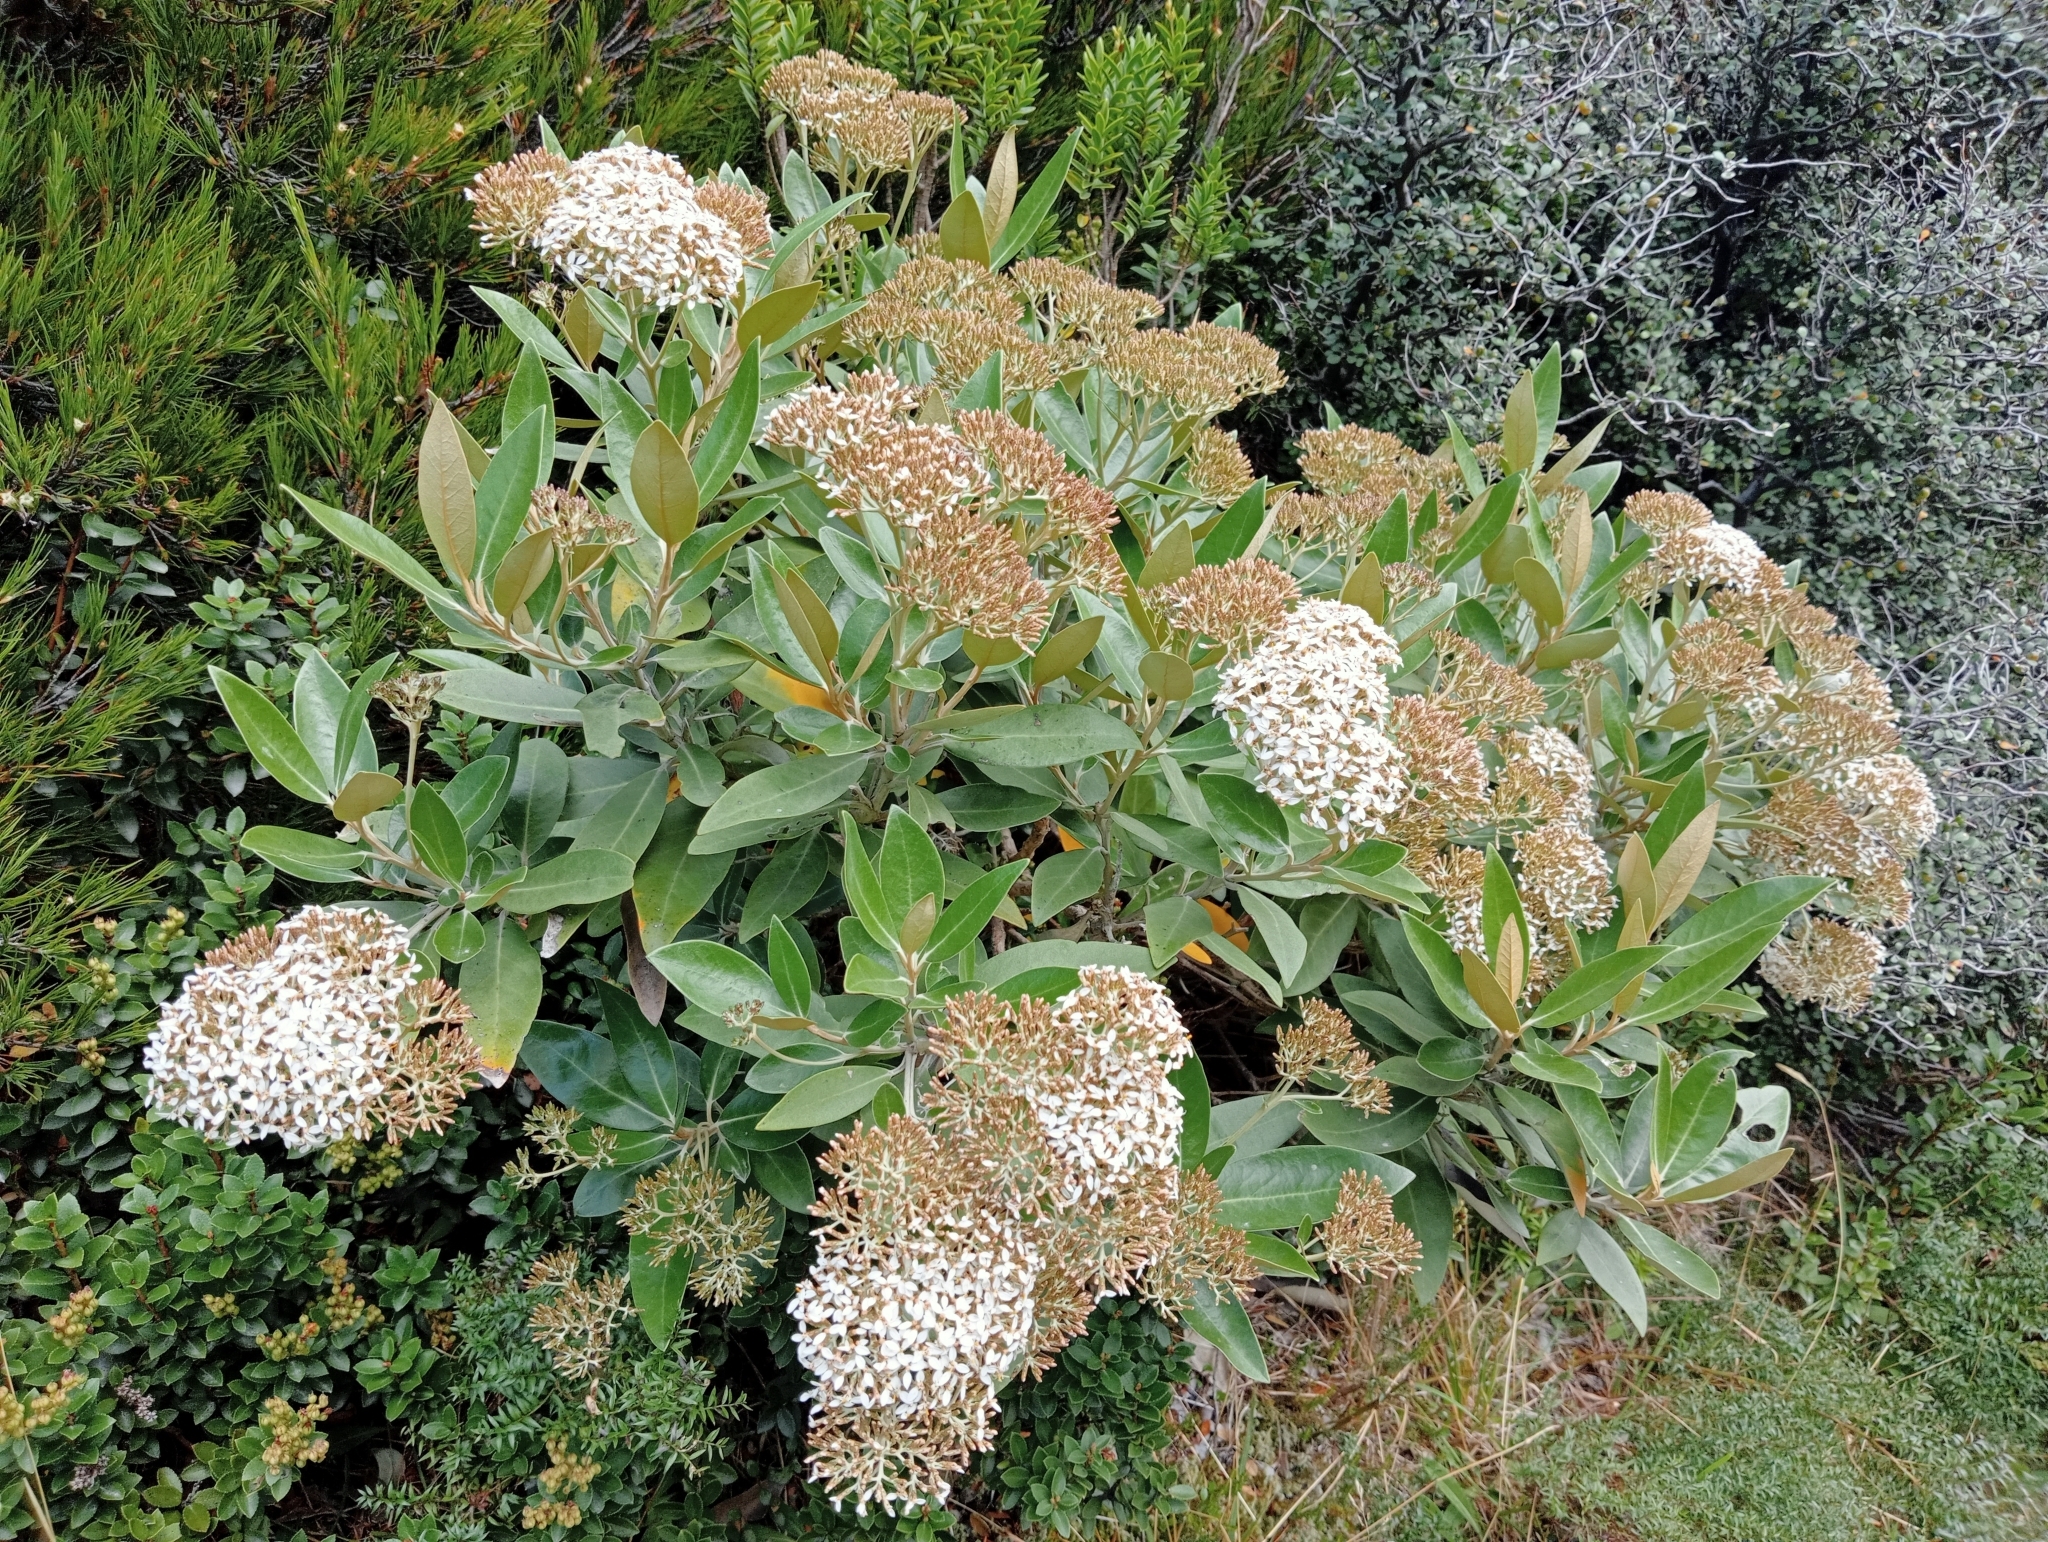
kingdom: Plantae
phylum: Tracheophyta
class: Magnoliopsida
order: Asterales
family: Asteraceae
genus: Olearia
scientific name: Olearia avicenniifolia
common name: Mangrove-leaf daisybush
